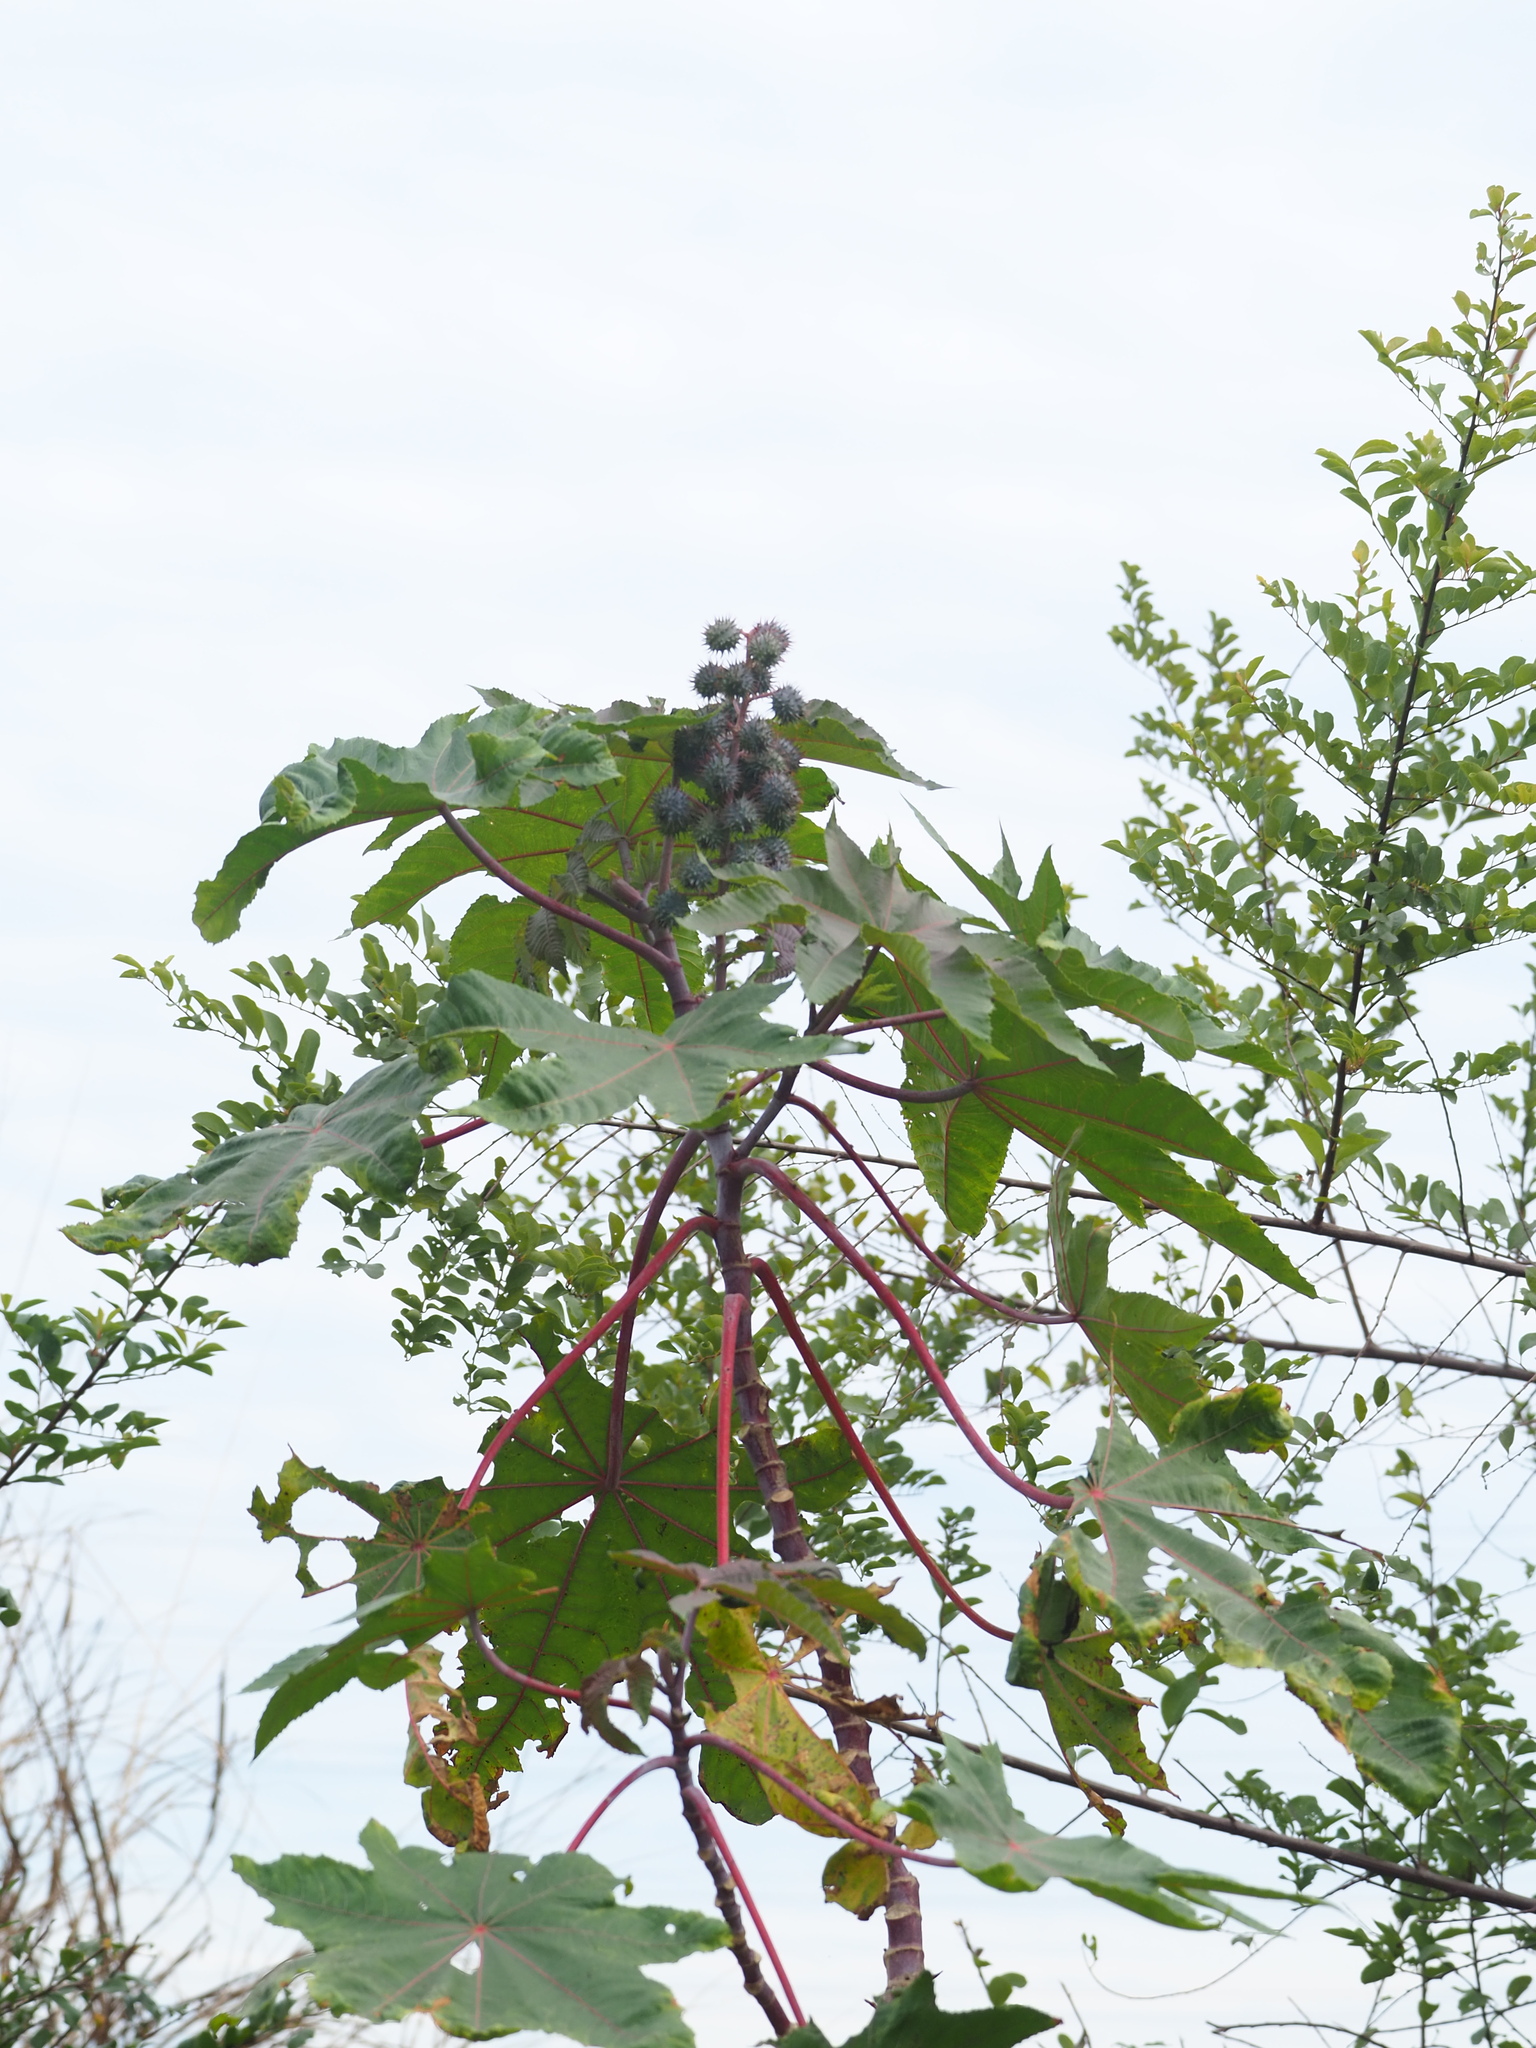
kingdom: Plantae
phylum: Tracheophyta
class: Magnoliopsida
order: Malpighiales
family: Euphorbiaceae
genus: Ricinus
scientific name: Ricinus communis
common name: Castor-oil-plant
